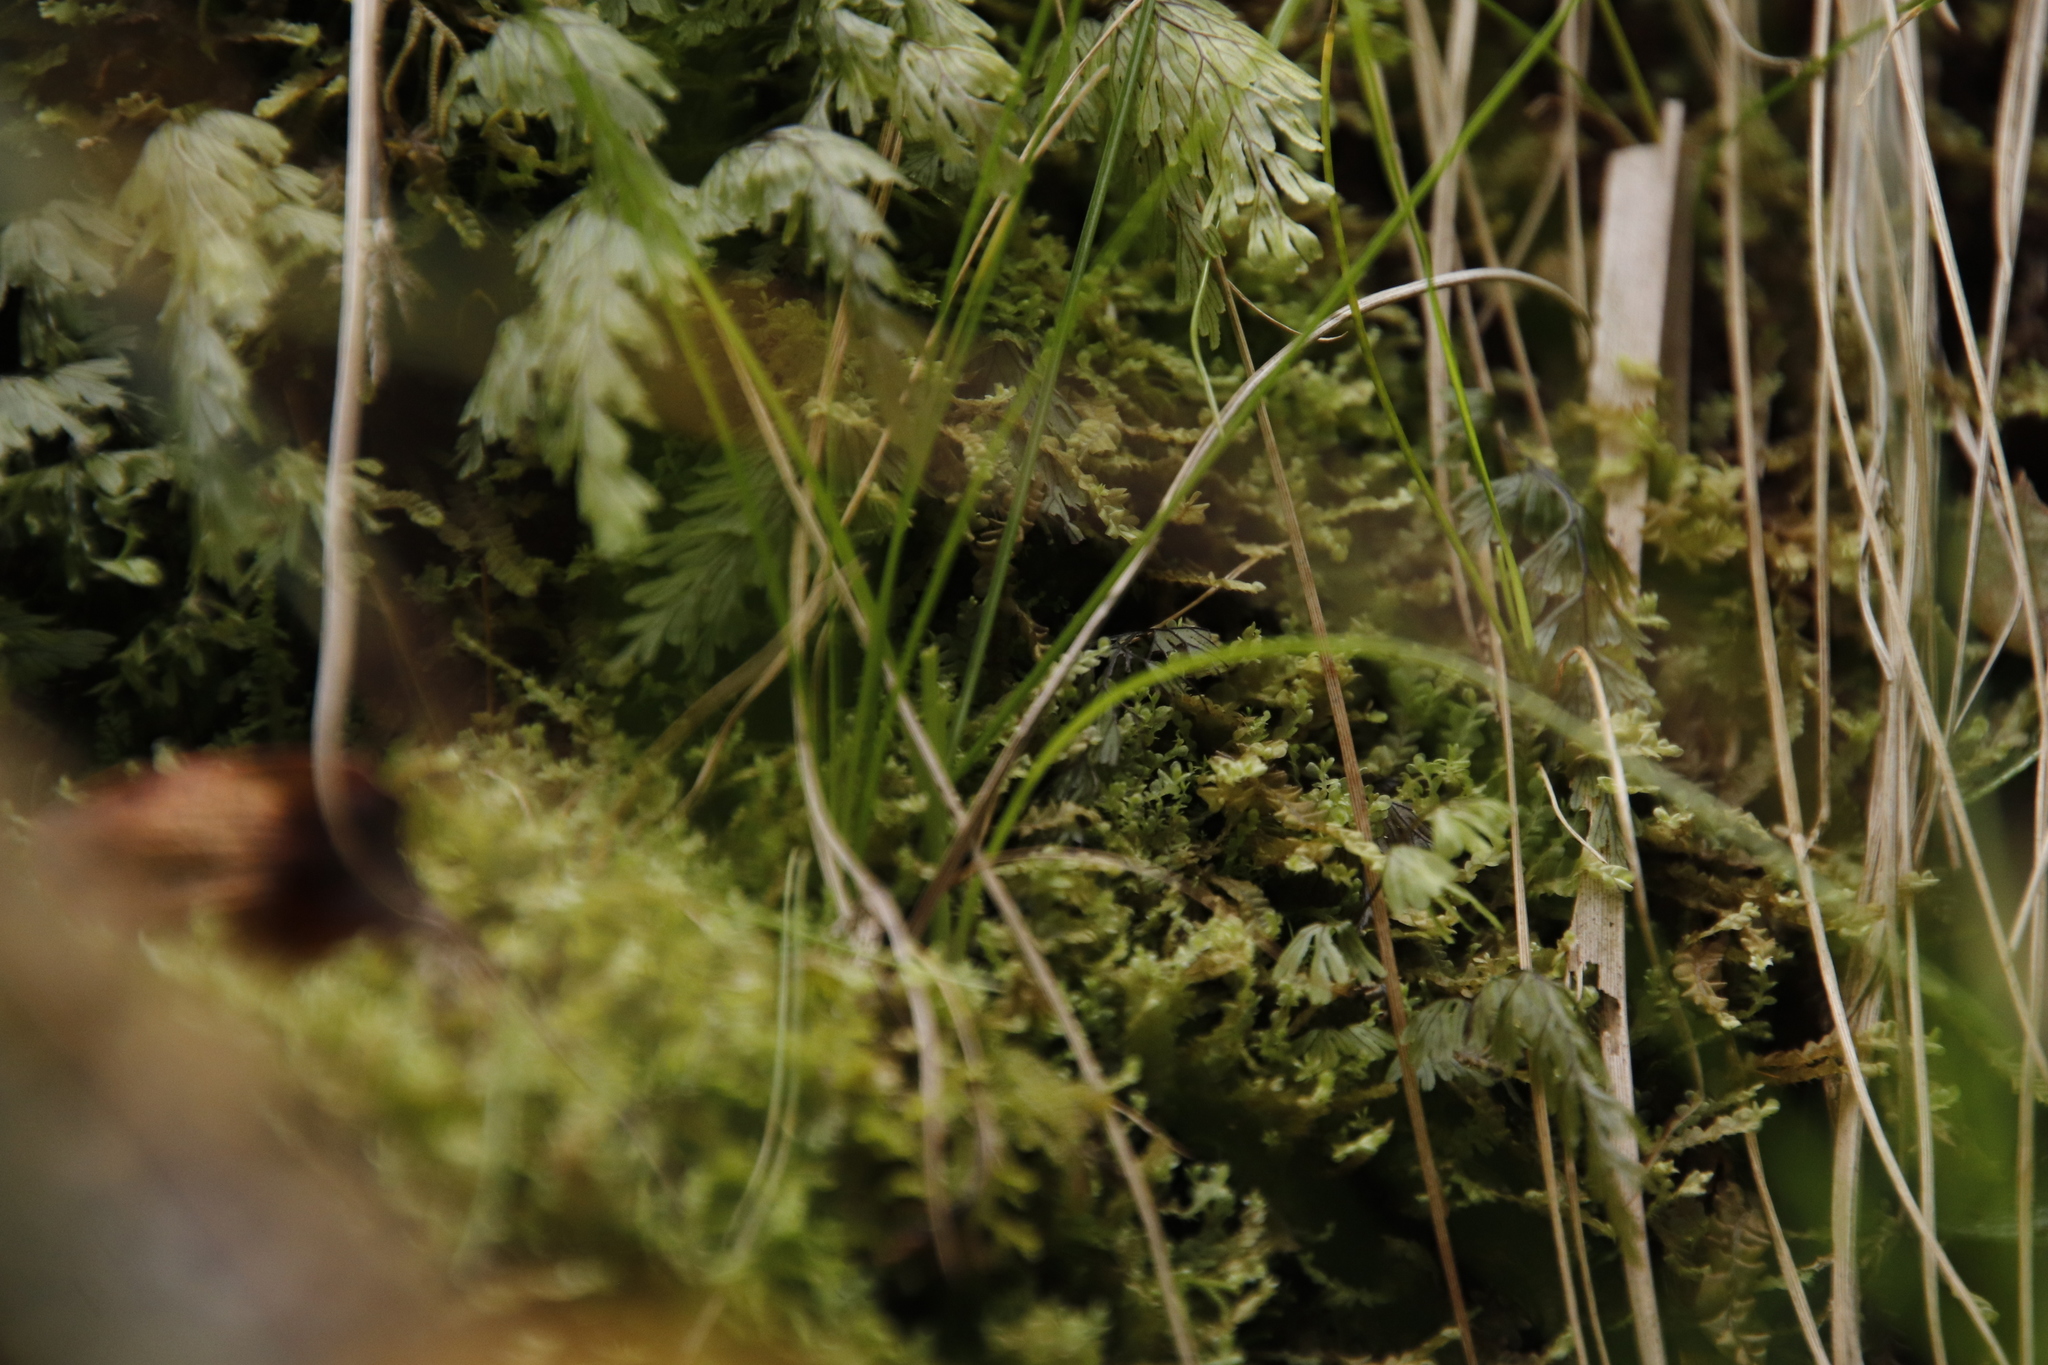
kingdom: Plantae
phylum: Tracheophyta
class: Polypodiopsida
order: Hymenophyllales
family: Hymenophyllaceae
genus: Hymenophyllum
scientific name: Hymenophyllum tunbrigense
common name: Tunbridge filmy fern
